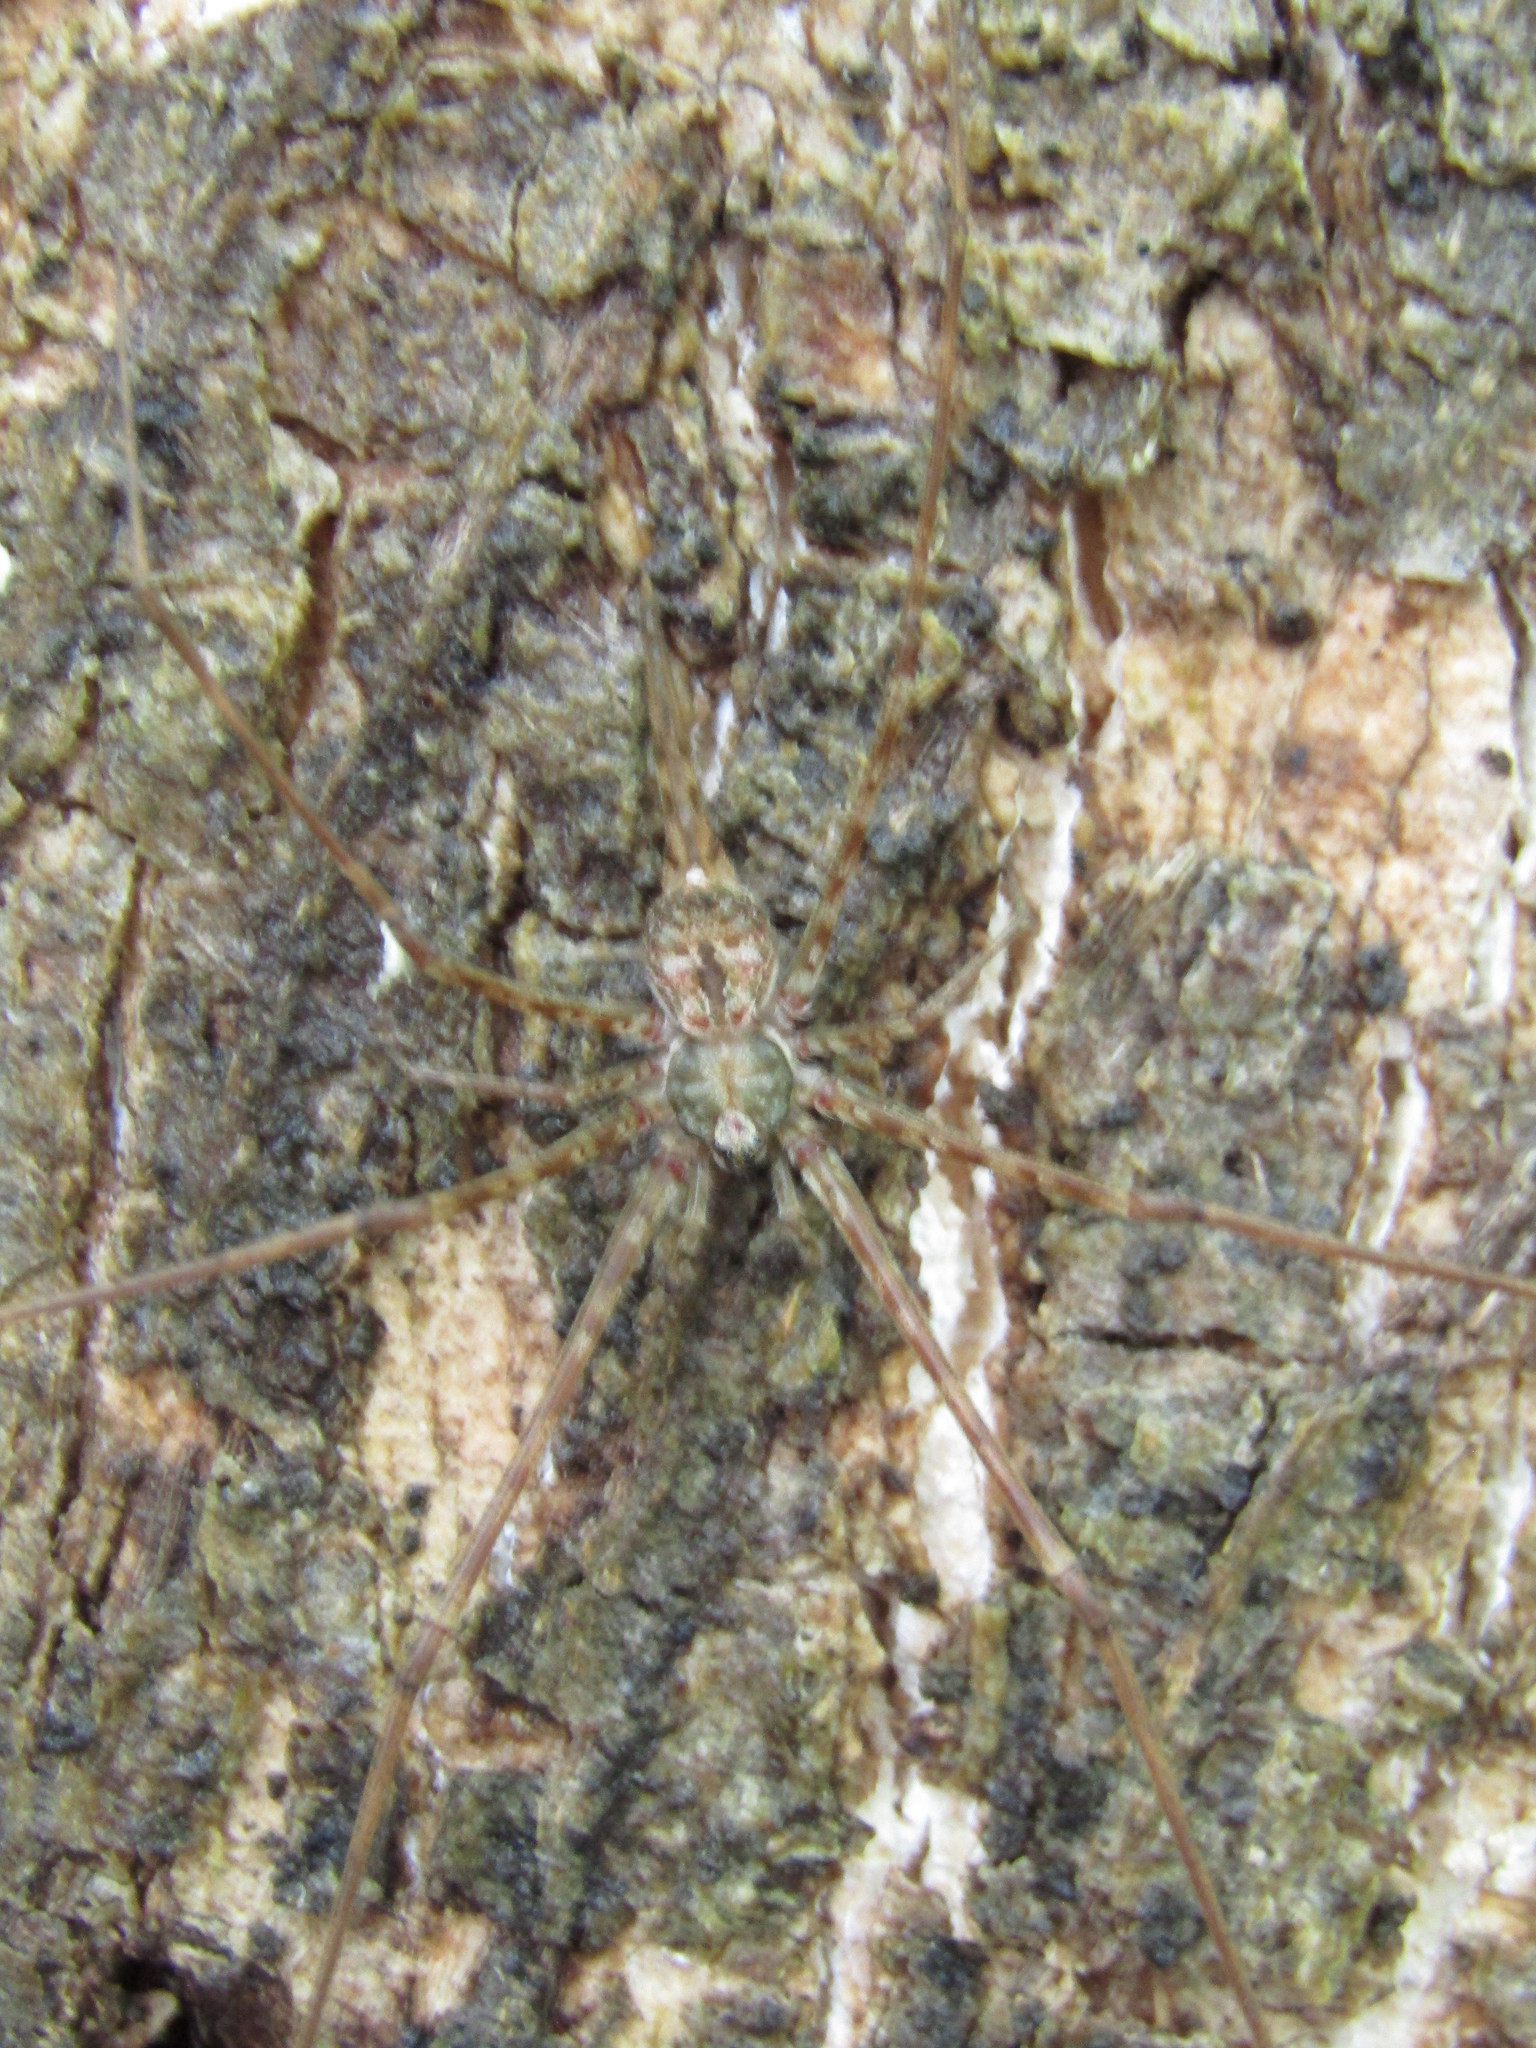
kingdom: Animalia
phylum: Arthropoda
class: Arachnida
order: Araneae
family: Hersiliidae
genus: Neotama
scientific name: Neotama mexicana
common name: Tree trunk spiders
